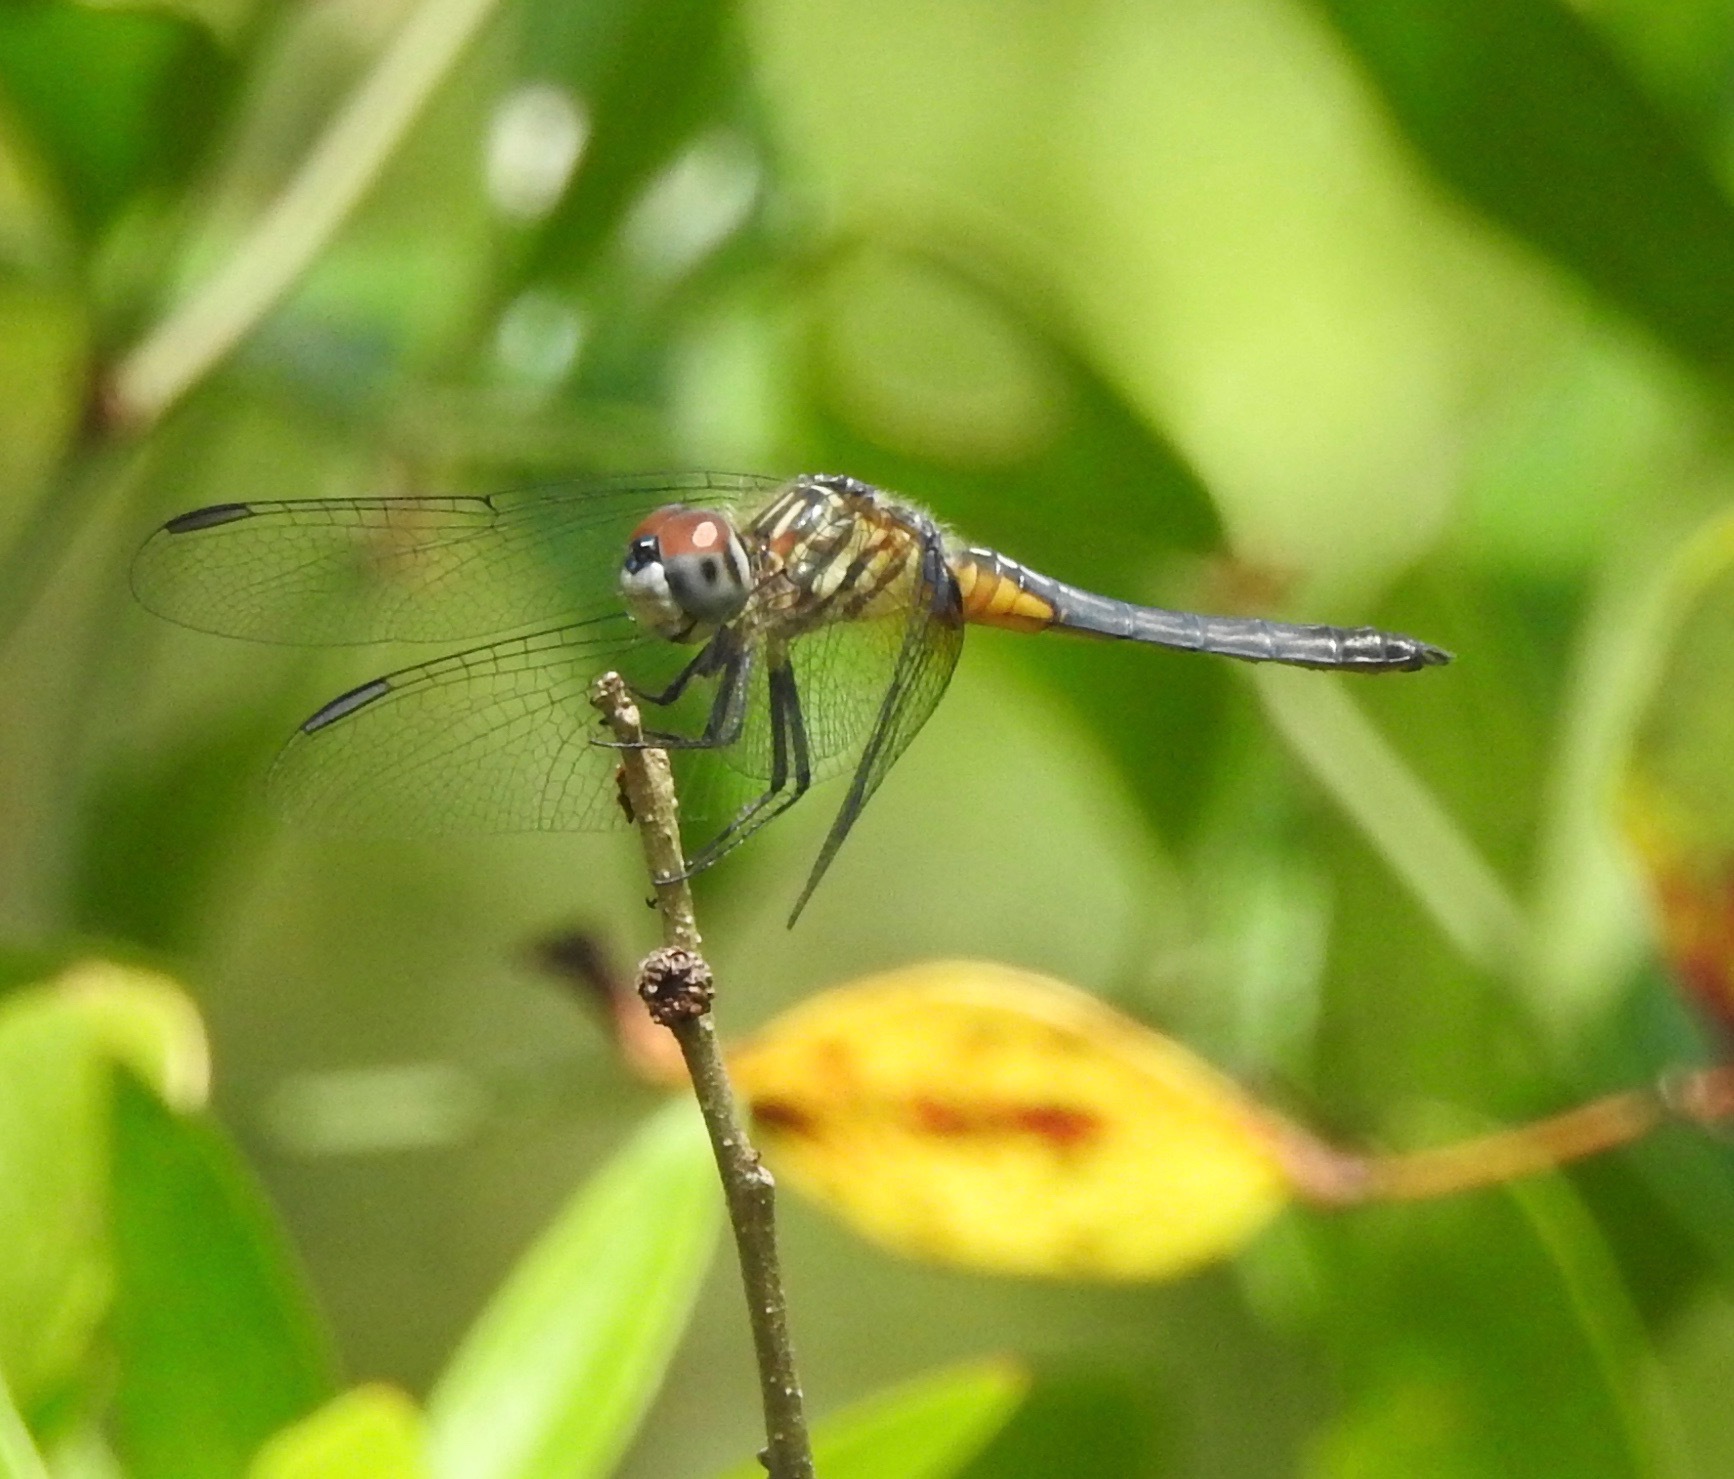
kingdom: Animalia
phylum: Arthropoda
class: Insecta
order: Odonata
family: Libellulidae
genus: Pachydiplax
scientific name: Pachydiplax longipennis
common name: Blue dasher
